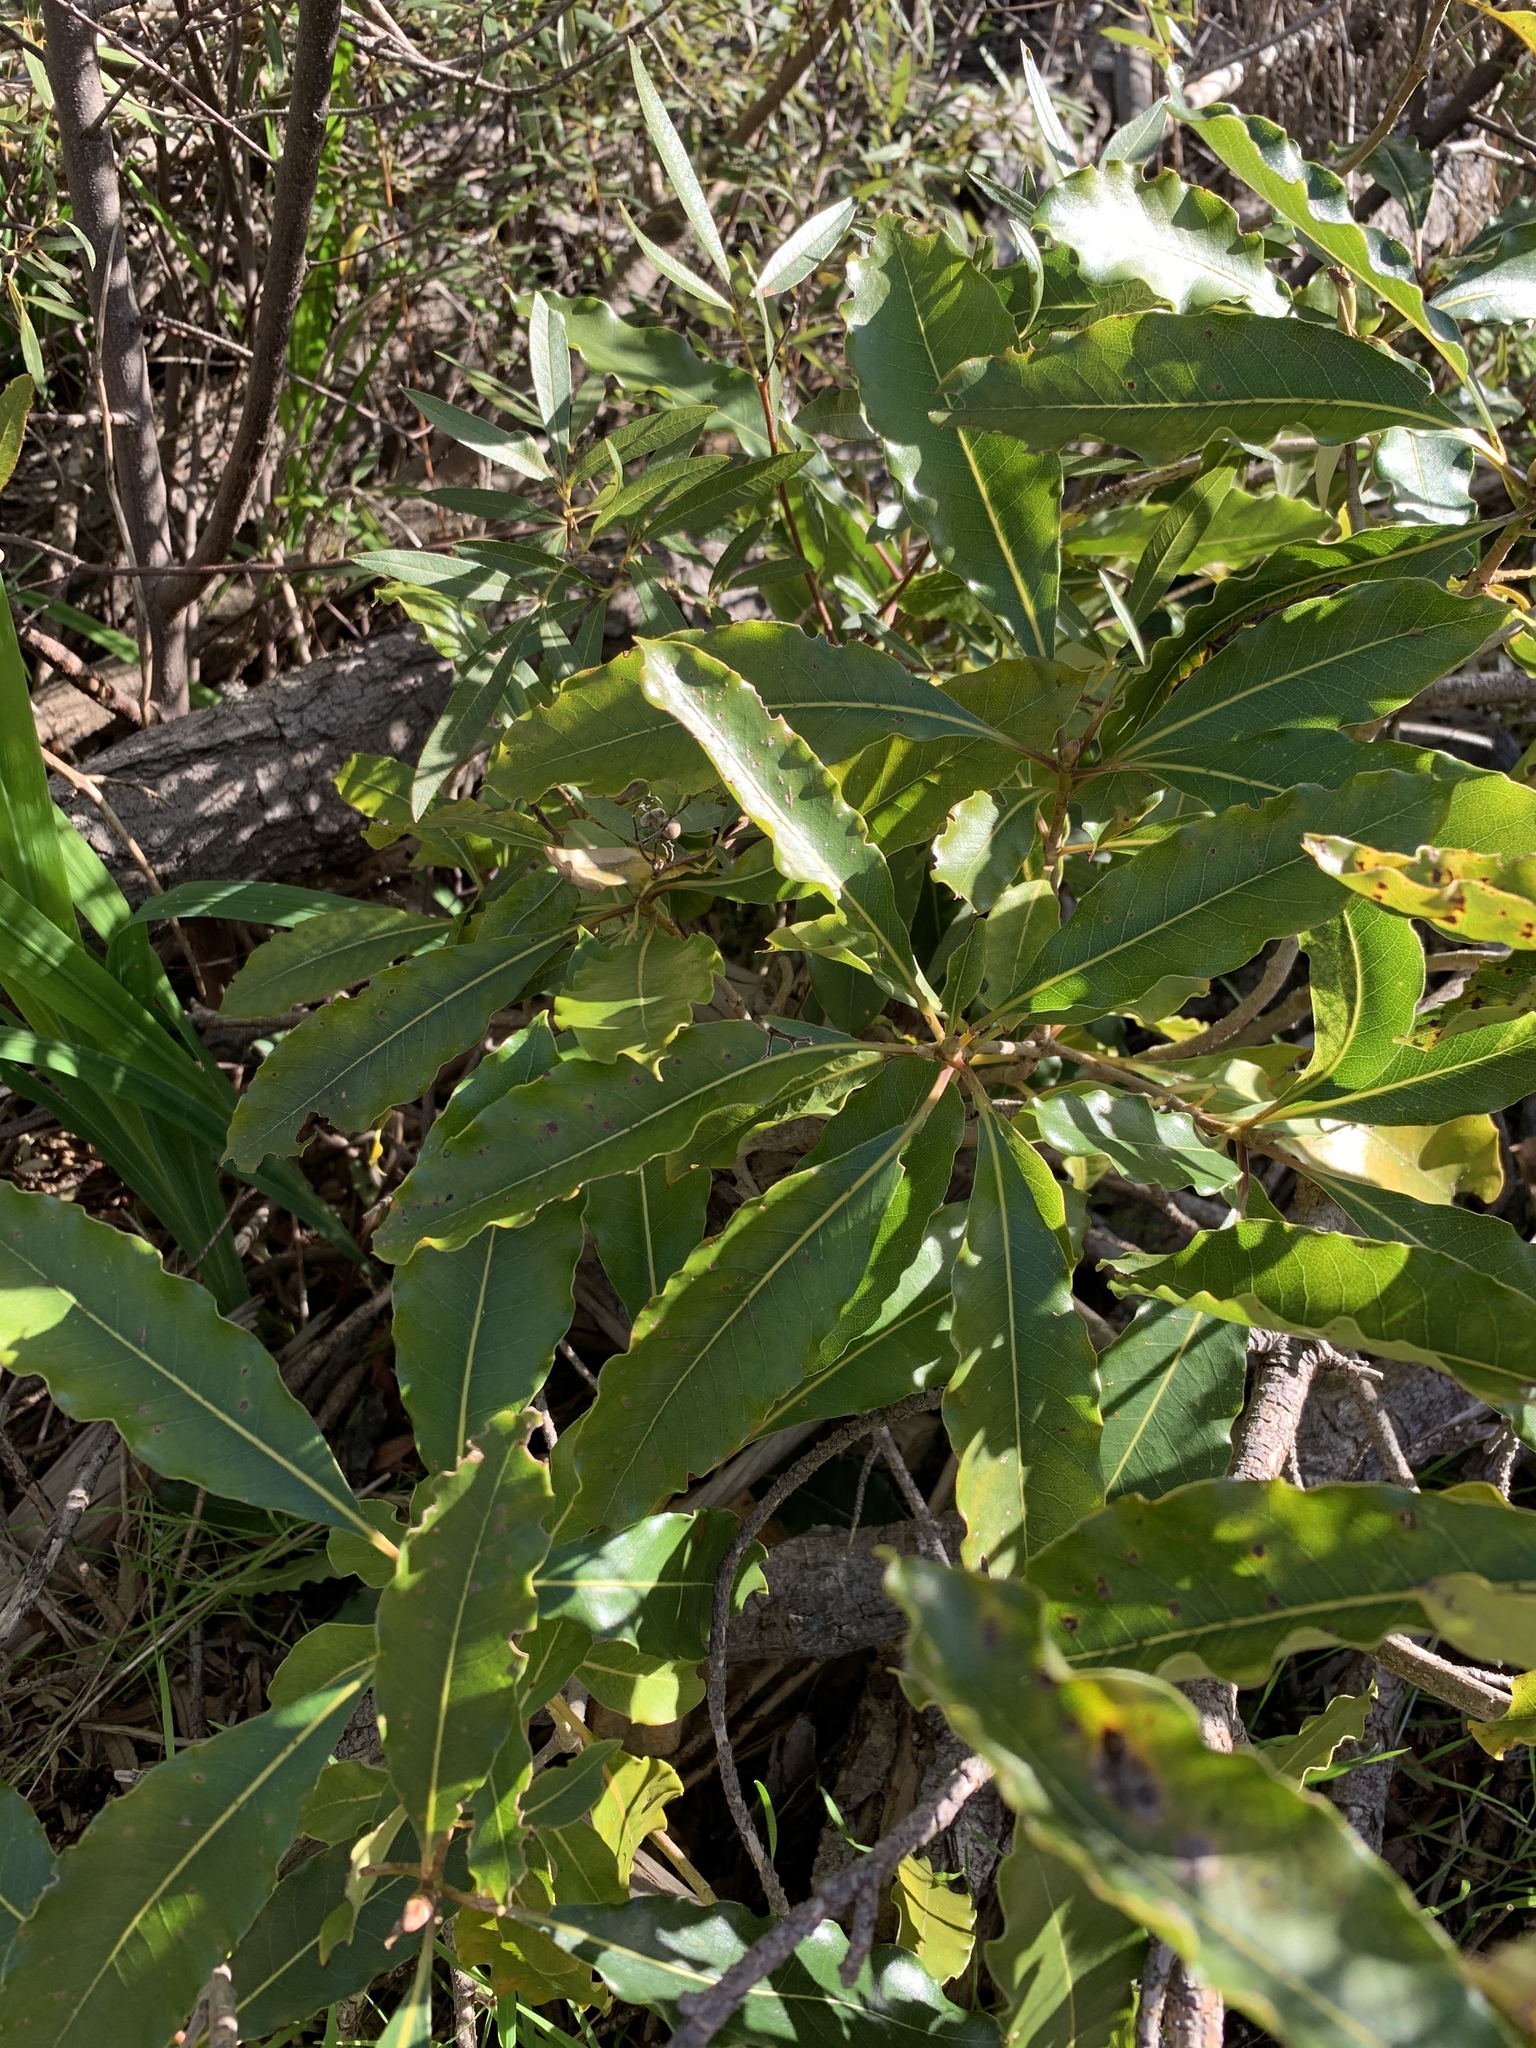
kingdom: Plantae
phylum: Tracheophyta
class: Magnoliopsida
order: Apiales
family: Pittosporaceae
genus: Pittosporum
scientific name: Pittosporum undulatum
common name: Australian cheesewood
